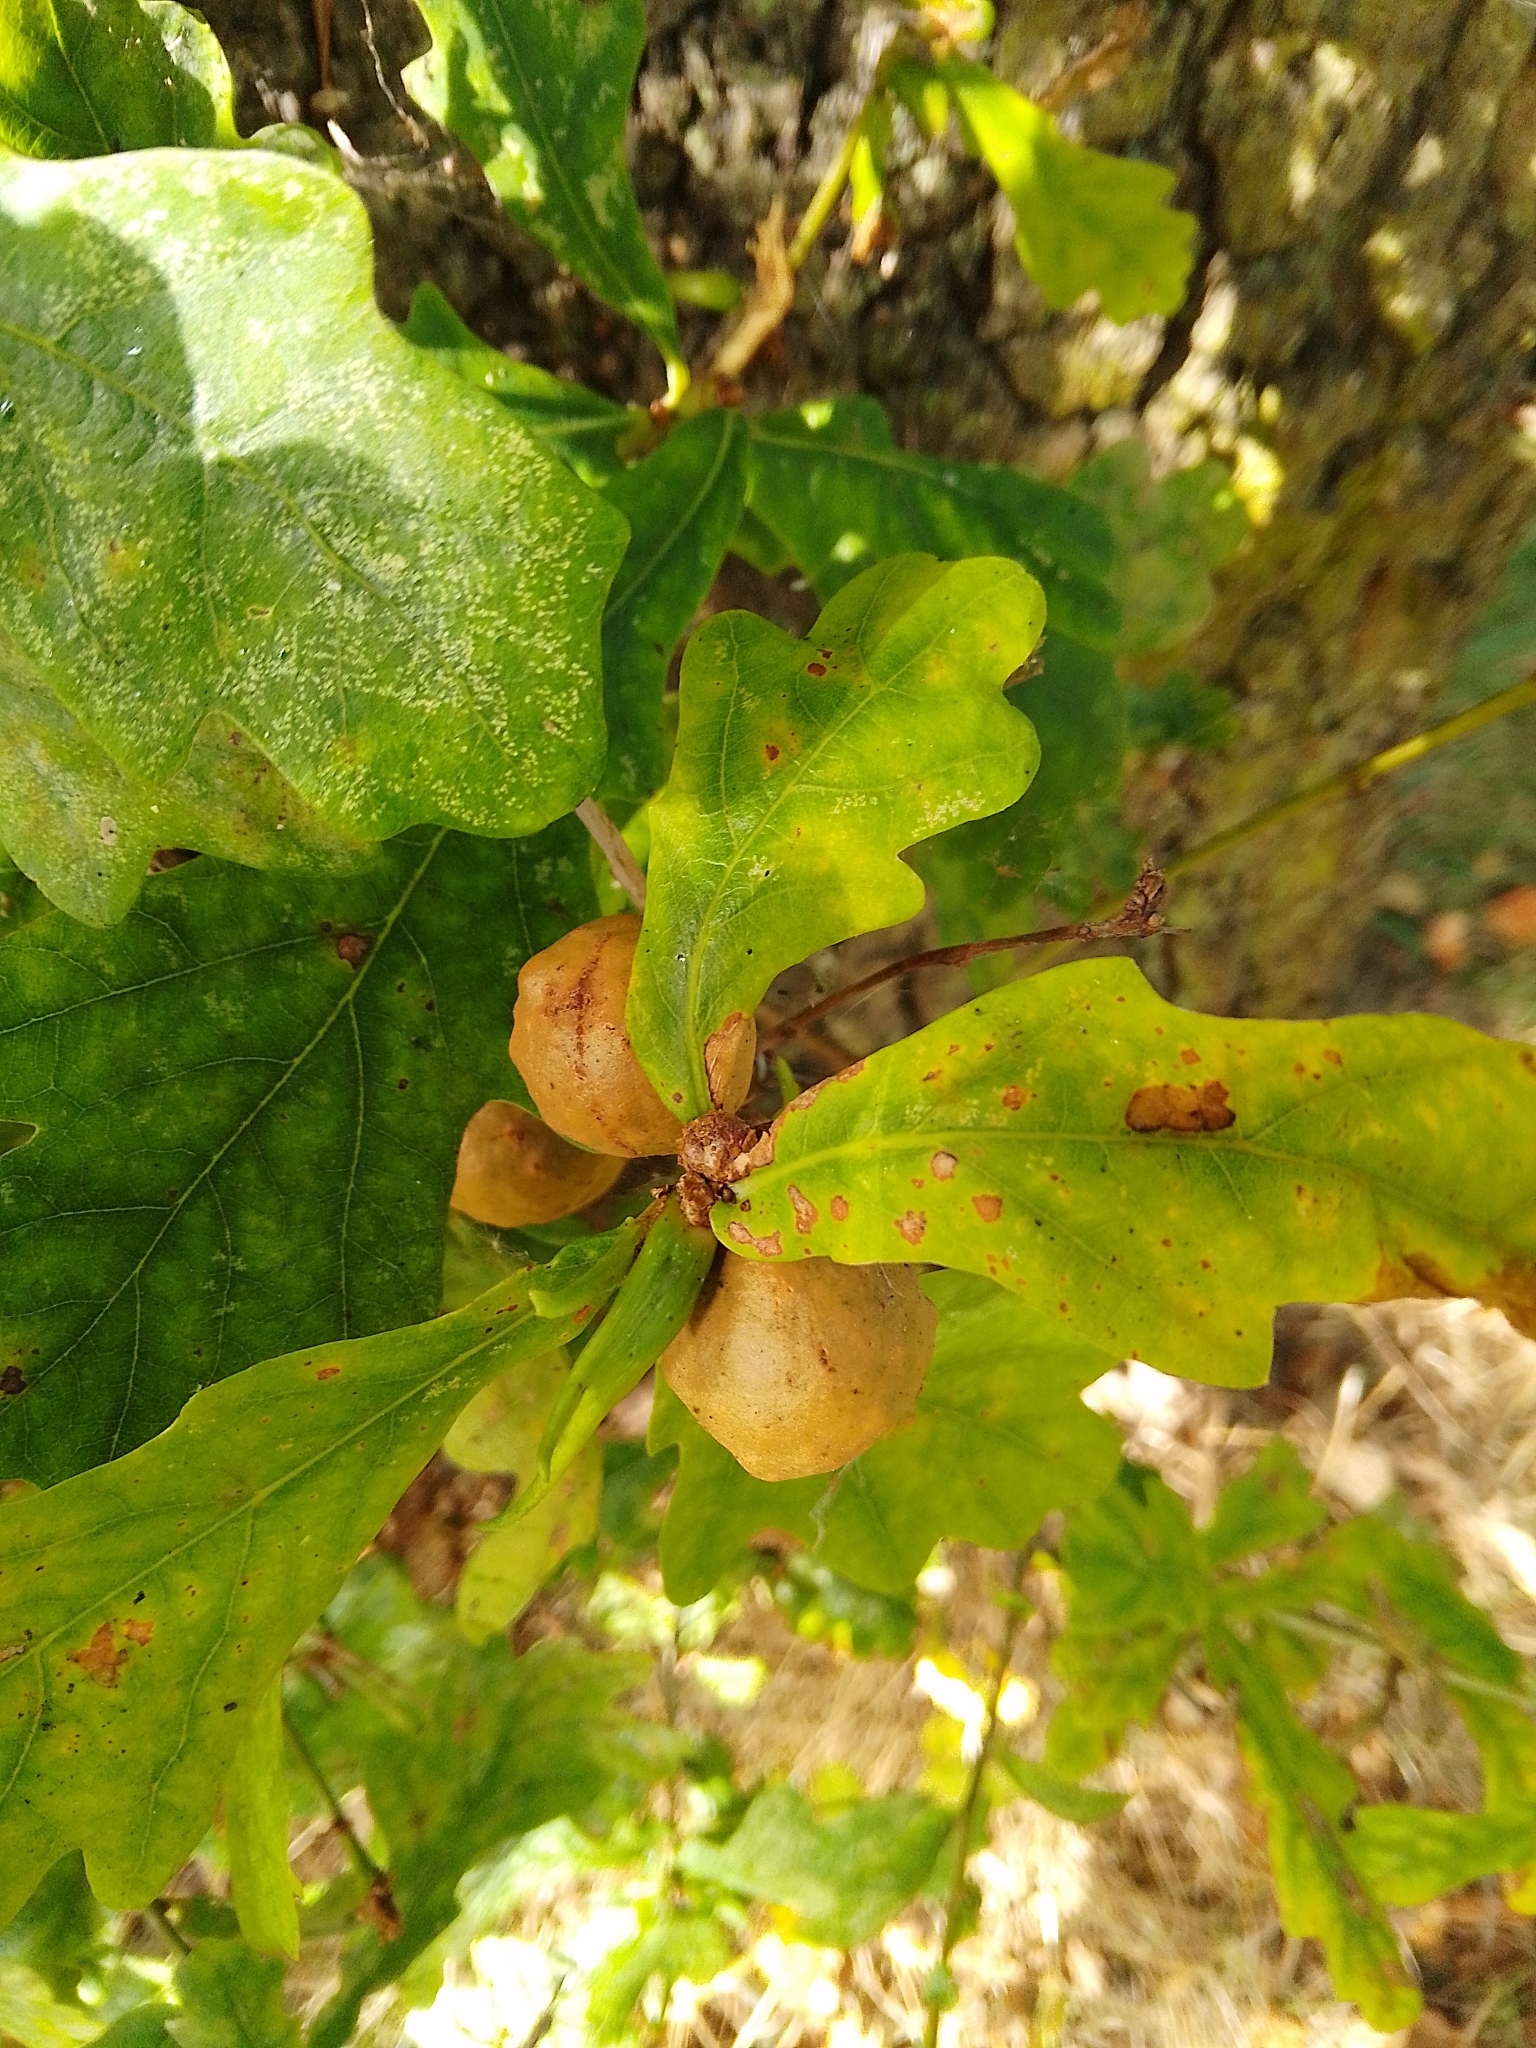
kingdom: Animalia
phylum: Arthropoda
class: Insecta
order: Hymenoptera
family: Cynipidae
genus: Andricus
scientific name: Andricus kollari
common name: Marble gall
